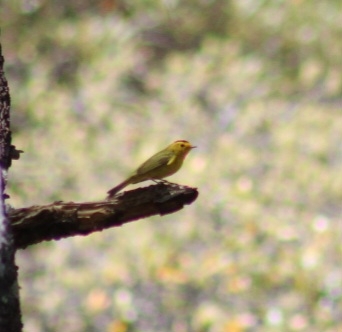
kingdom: Animalia
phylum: Chordata
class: Aves
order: Passeriformes
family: Parulidae
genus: Cardellina
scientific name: Cardellina pusilla
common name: Wilson's warbler
